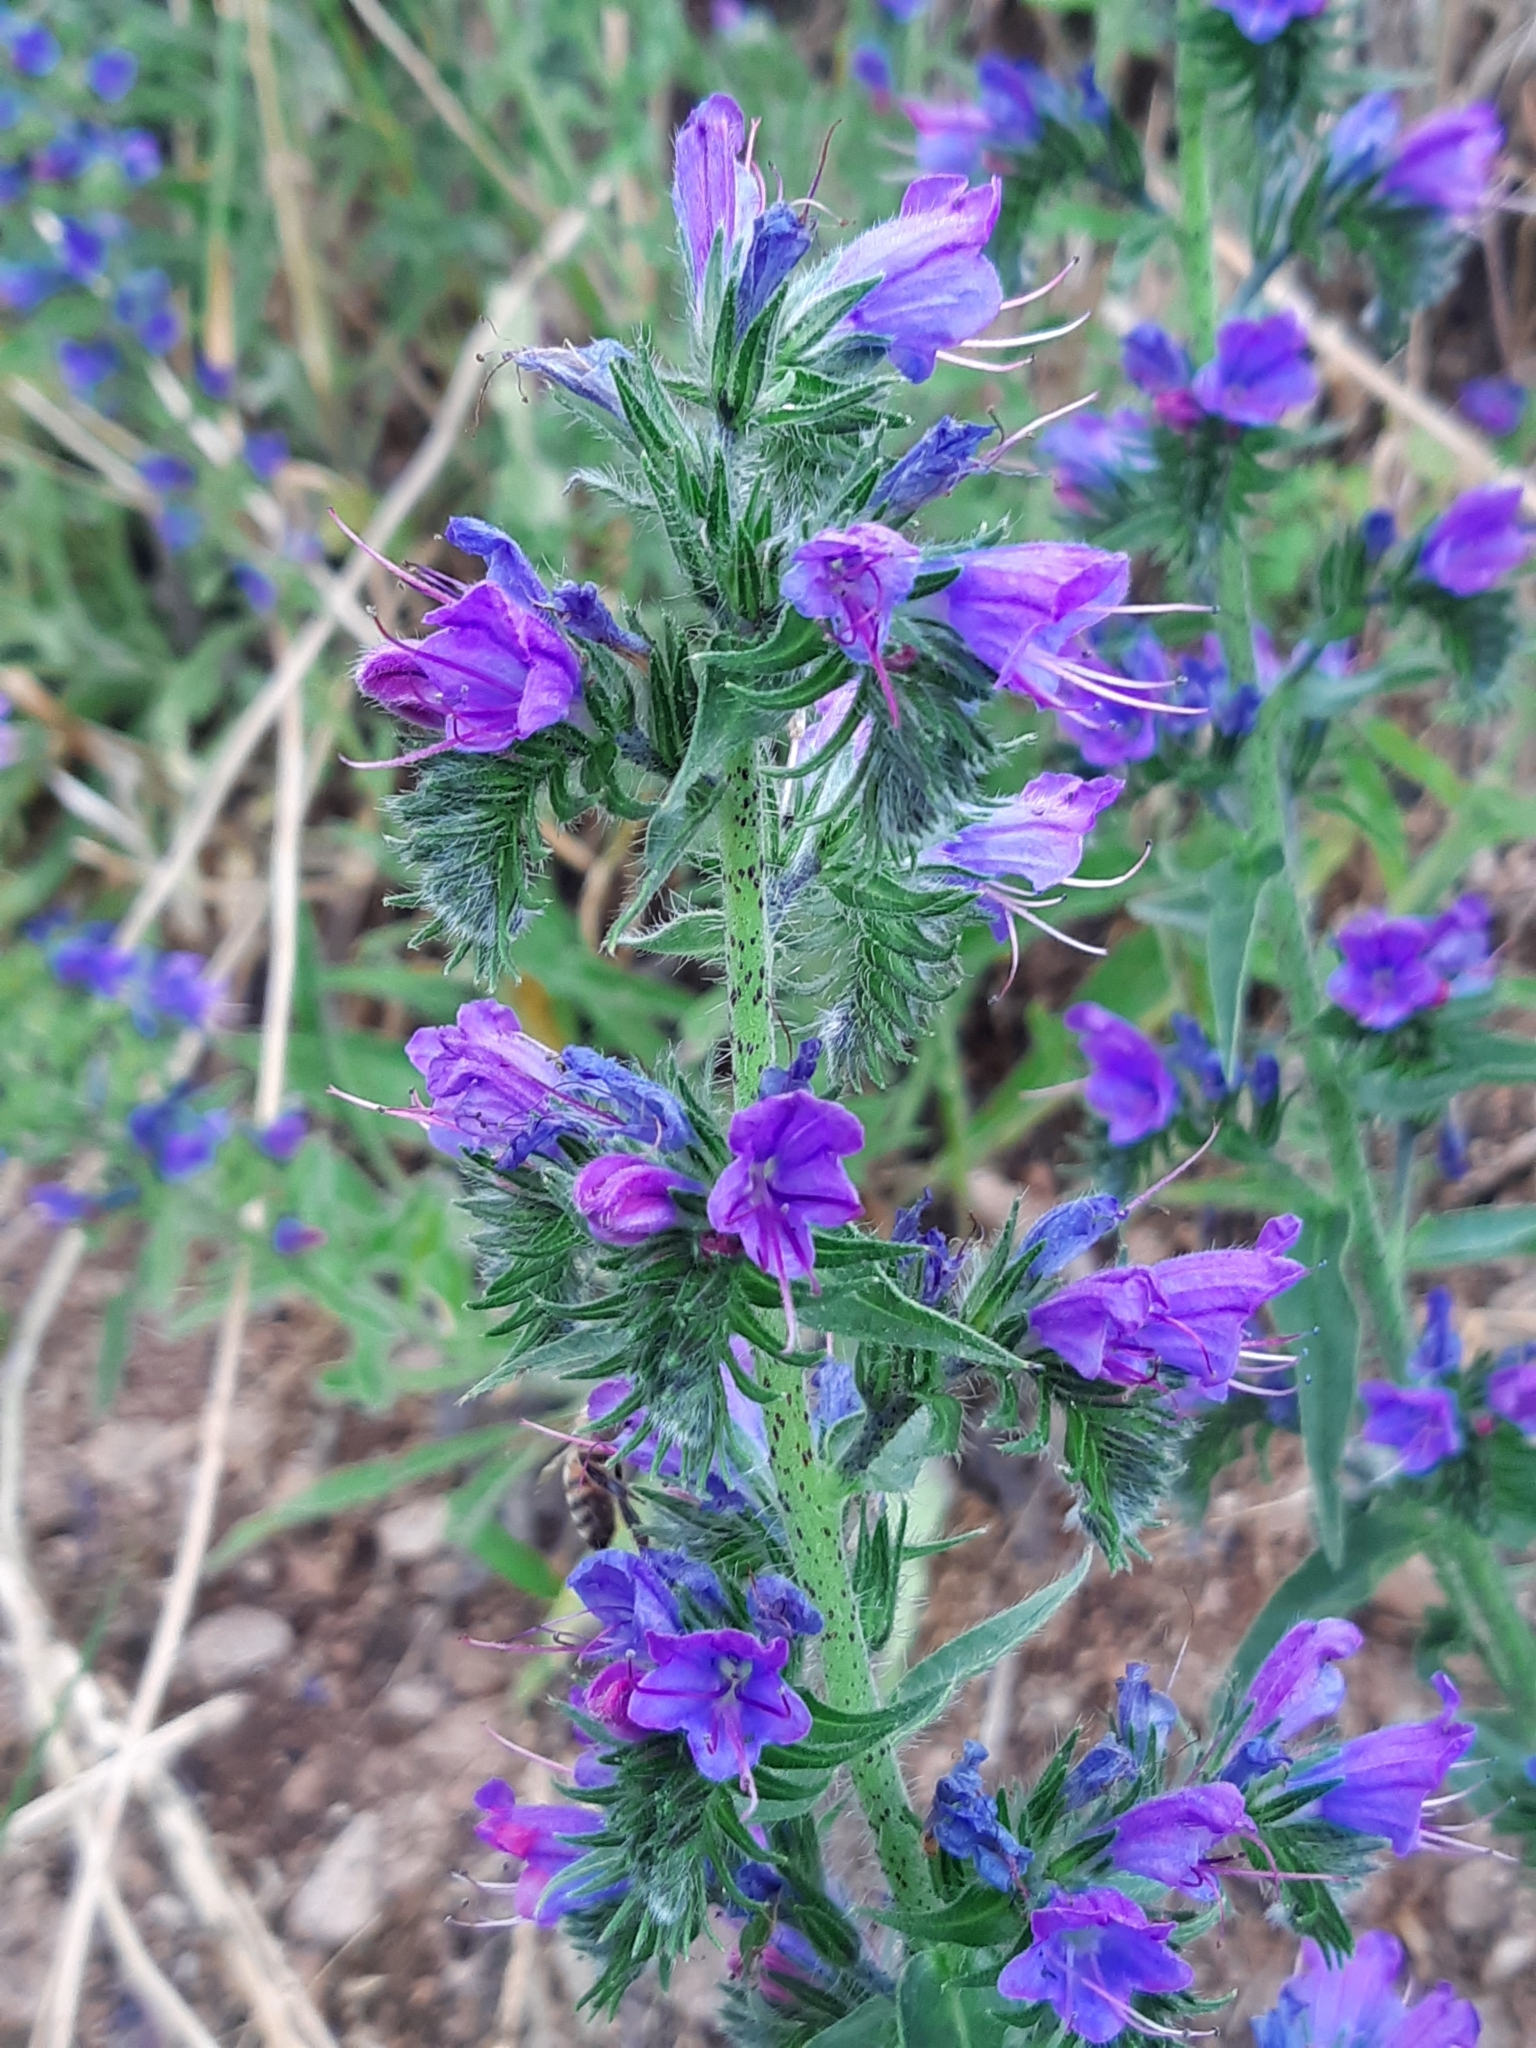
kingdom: Plantae
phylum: Tracheophyta
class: Magnoliopsida
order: Boraginales
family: Boraginaceae
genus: Echium
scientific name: Echium vulgare
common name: Common viper's bugloss
